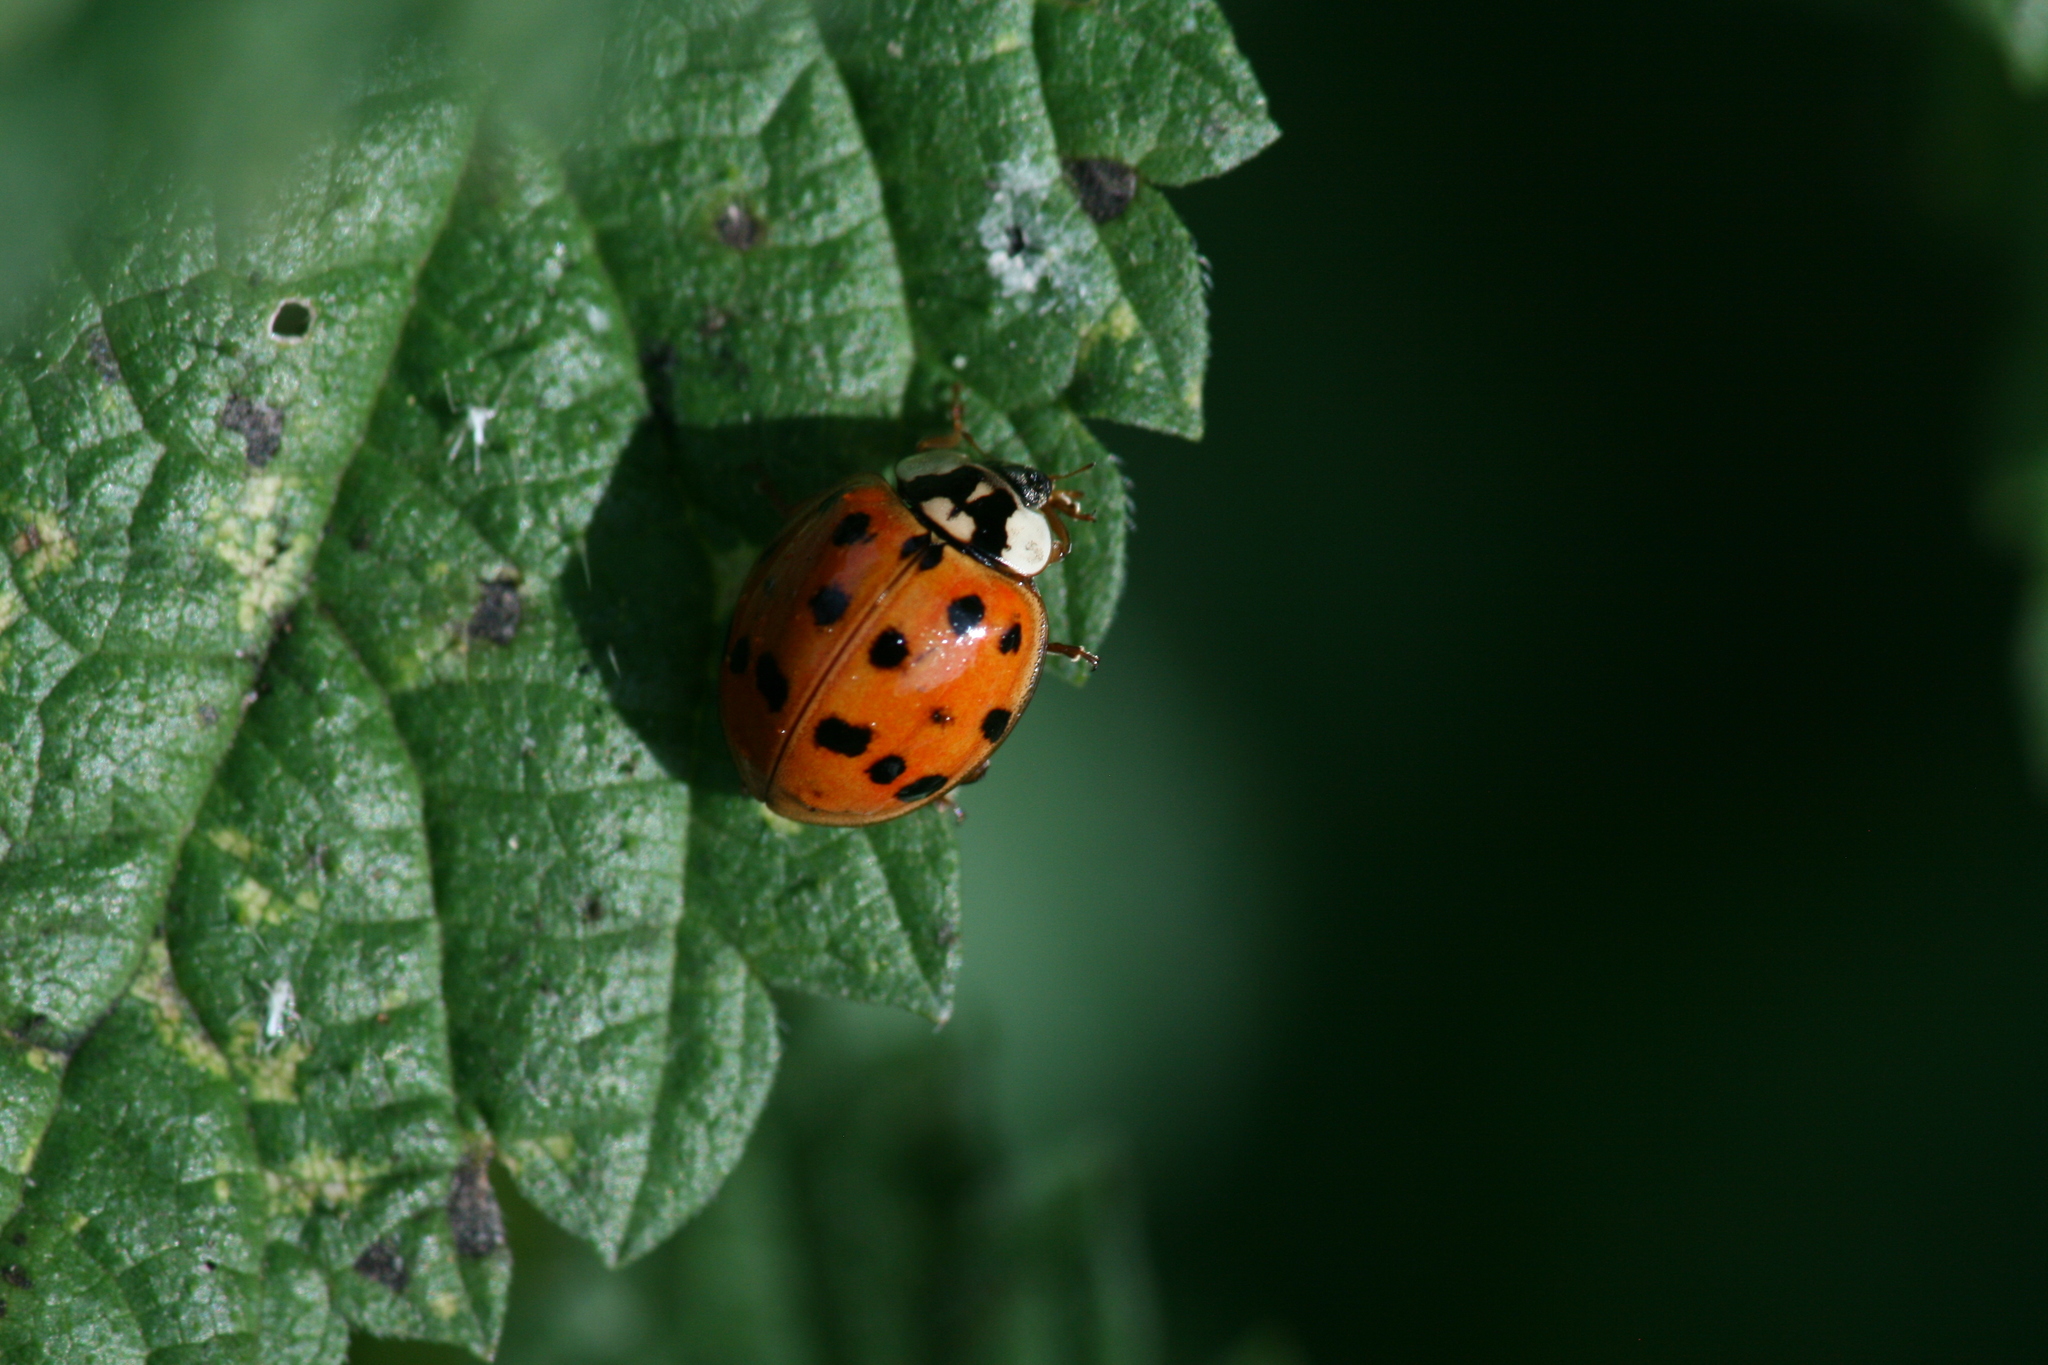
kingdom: Animalia
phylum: Arthropoda
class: Insecta
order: Coleoptera
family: Coccinellidae
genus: Harmonia
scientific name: Harmonia axyridis
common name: Harlequin ladybird
